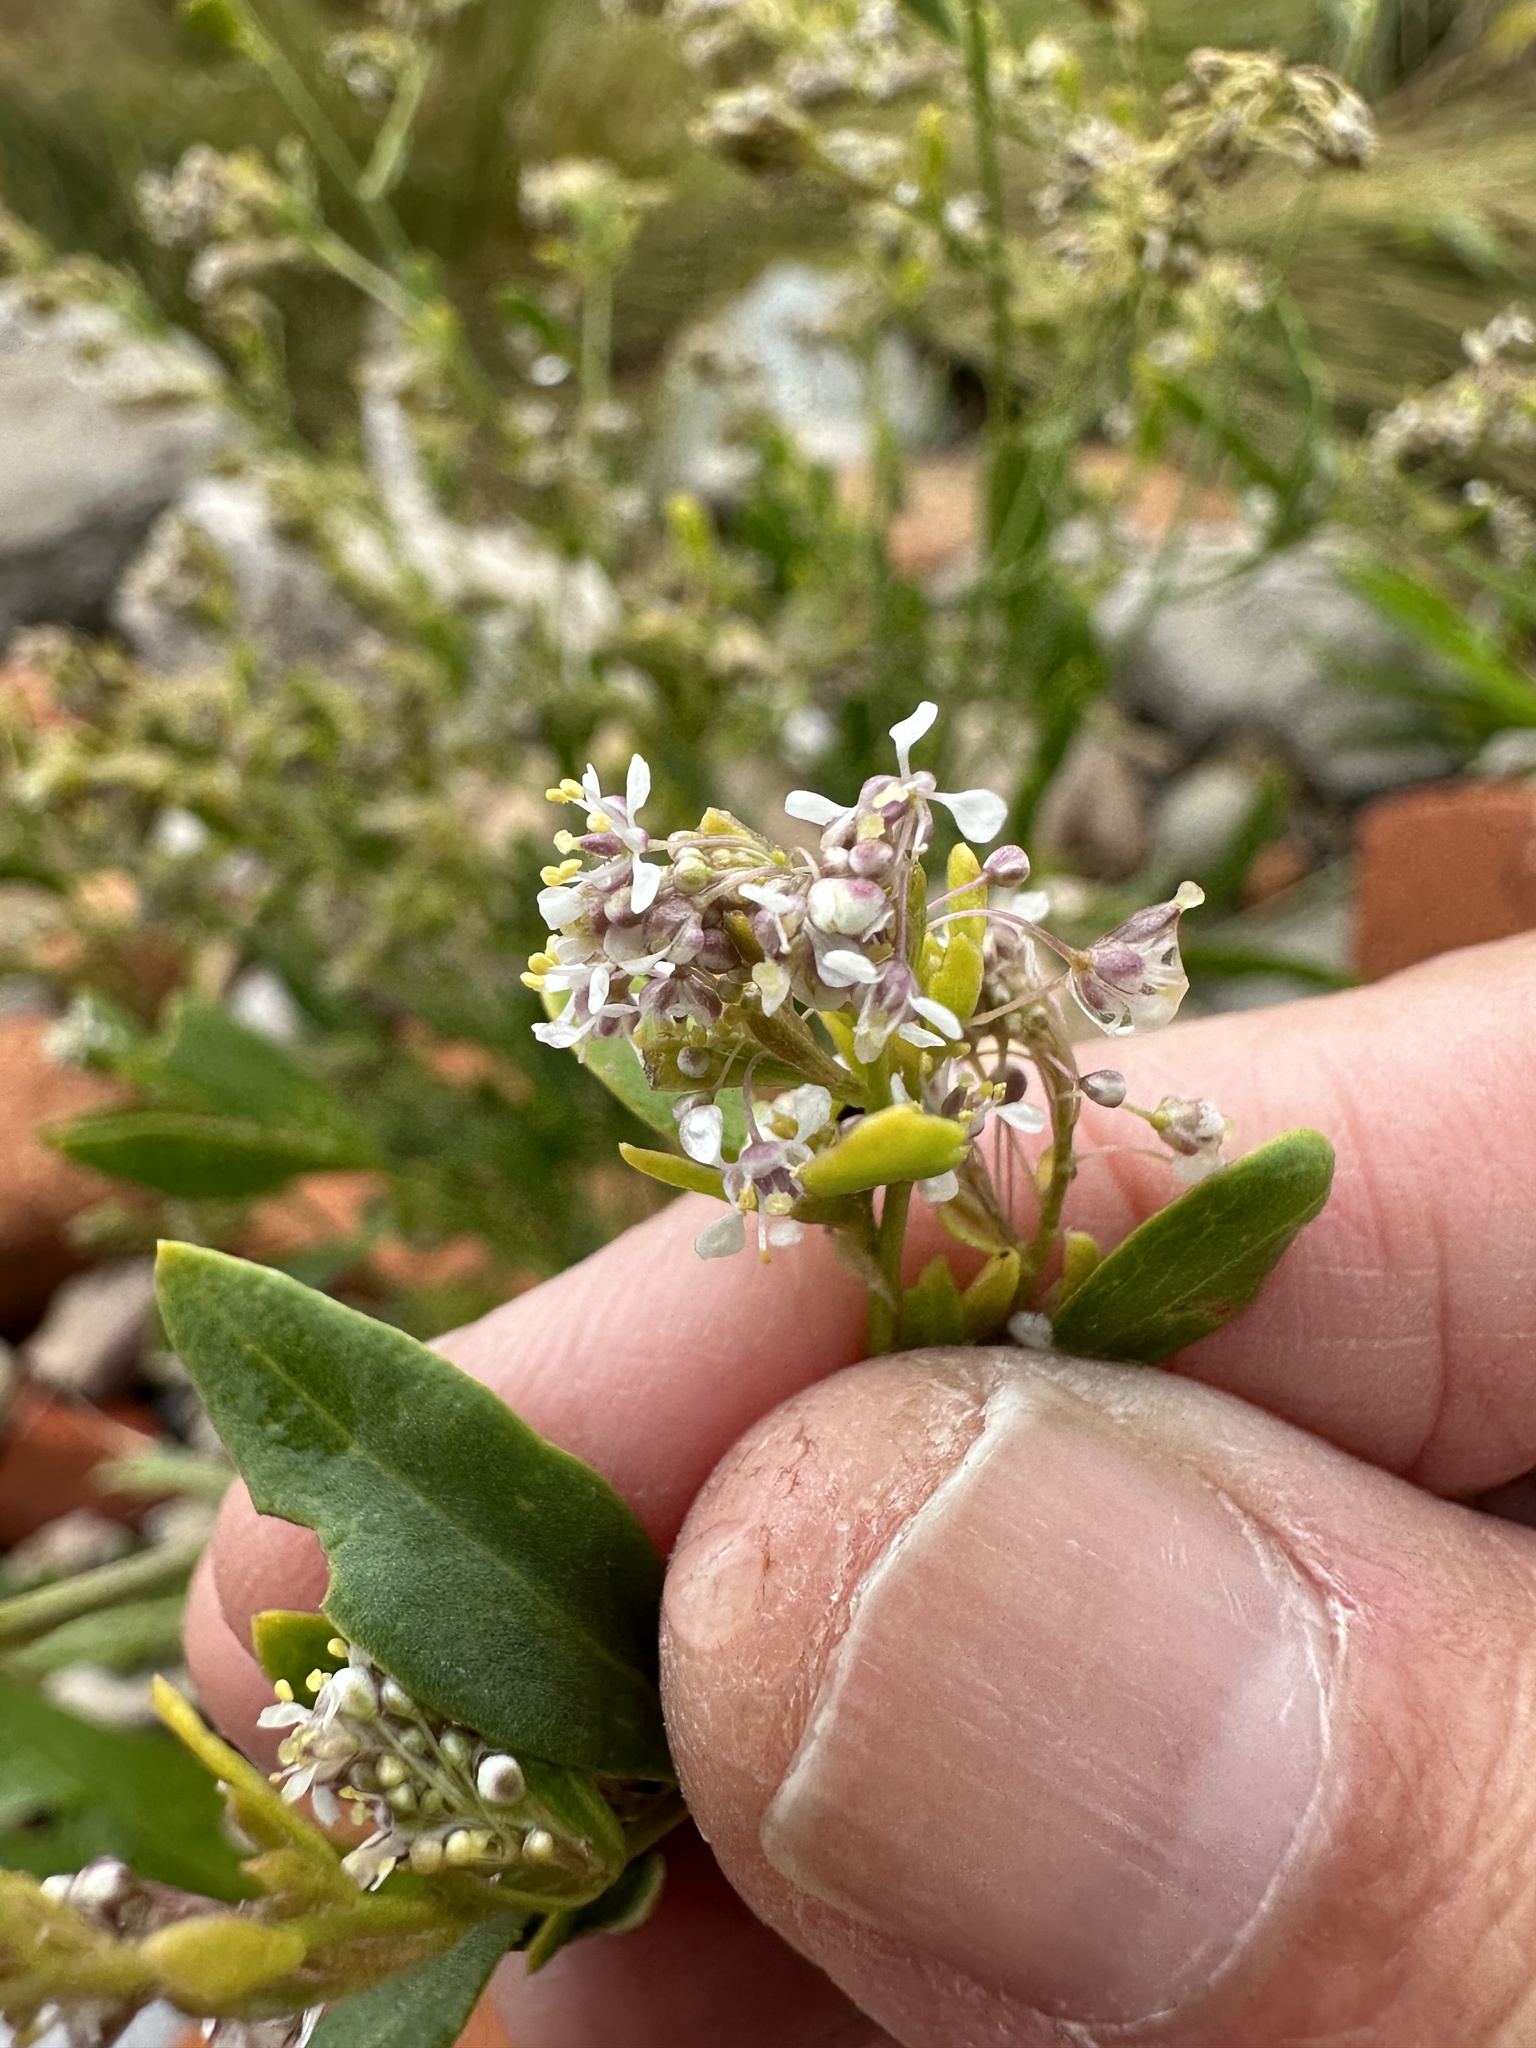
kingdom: Plantae
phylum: Tracheophyta
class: Magnoliopsida
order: Brassicales
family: Brassicaceae
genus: Lepidium
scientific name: Lepidium latifolium
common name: Dittander
